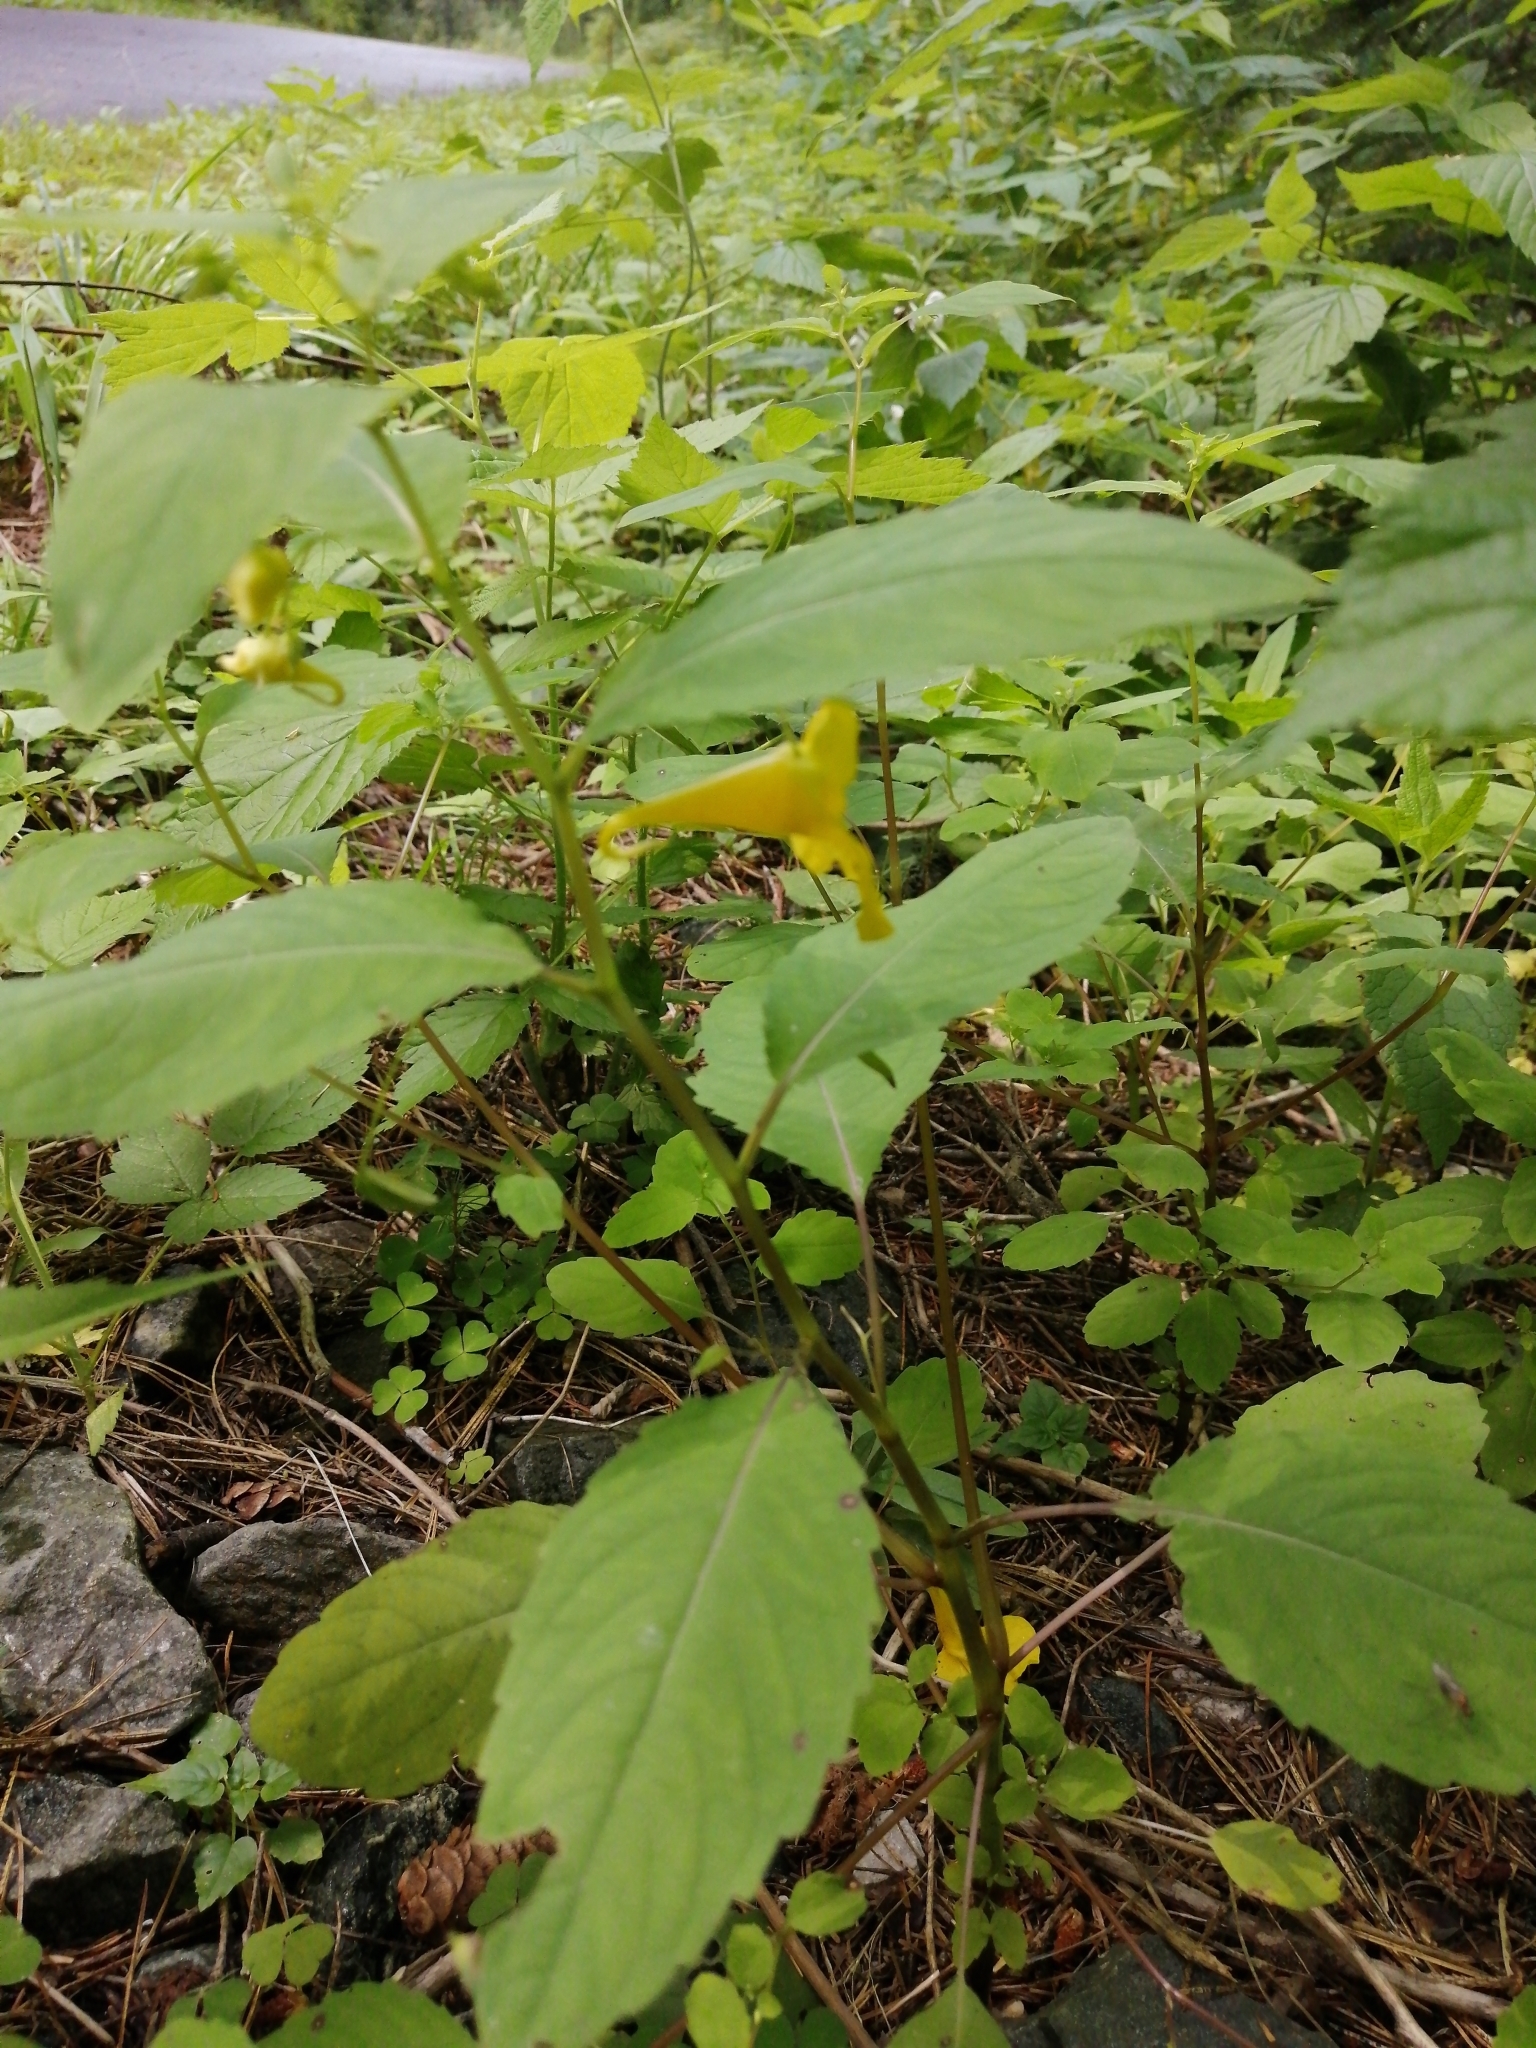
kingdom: Plantae
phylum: Tracheophyta
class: Magnoliopsida
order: Ericales
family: Balsaminaceae
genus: Impatiens
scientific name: Impatiens noli-tangere
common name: Touch-me-not balsam
